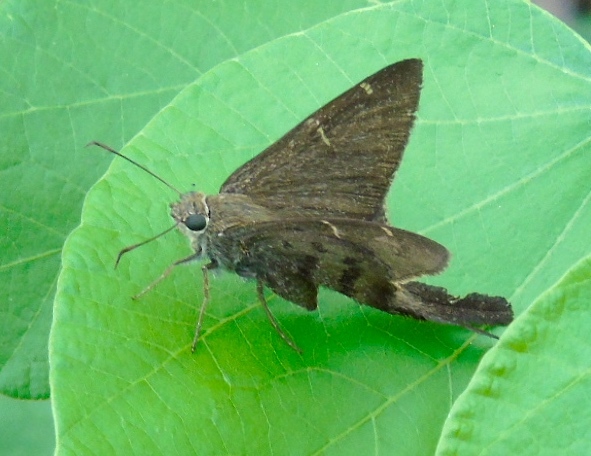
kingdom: Animalia
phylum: Arthropoda
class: Insecta
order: Lepidoptera
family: Hesperiidae
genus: Urbanus
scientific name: Urbanus procne
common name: Brown longtail
